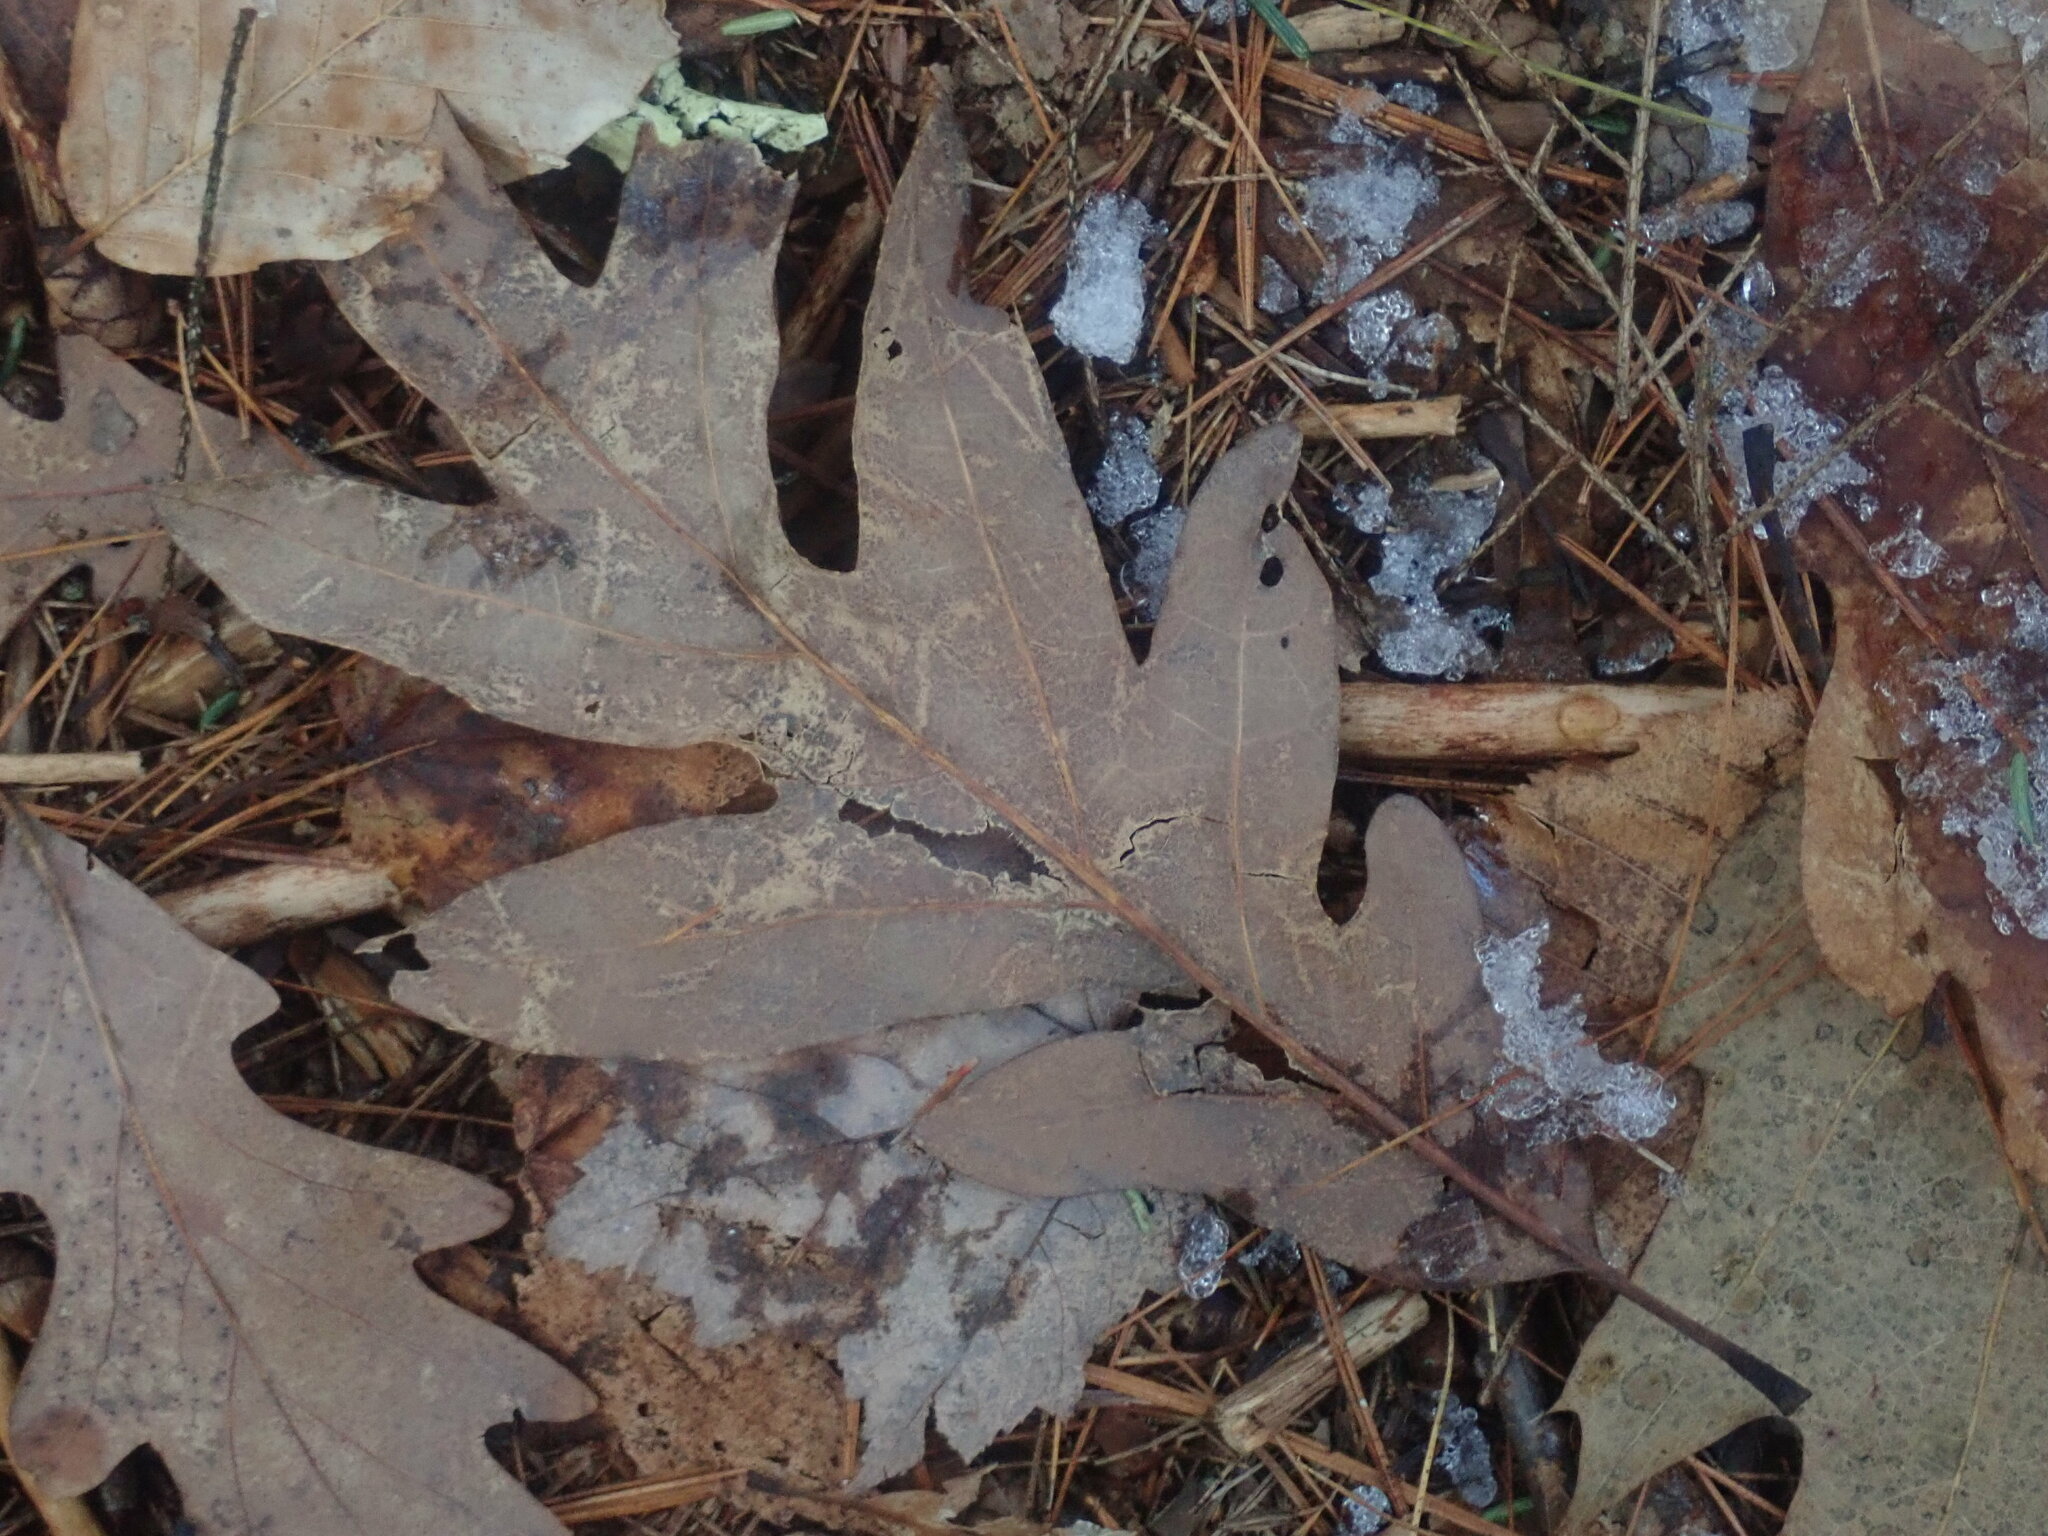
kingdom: Plantae
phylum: Tracheophyta
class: Magnoliopsida
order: Fagales
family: Fagaceae
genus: Quercus
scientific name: Quercus alba
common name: White oak
